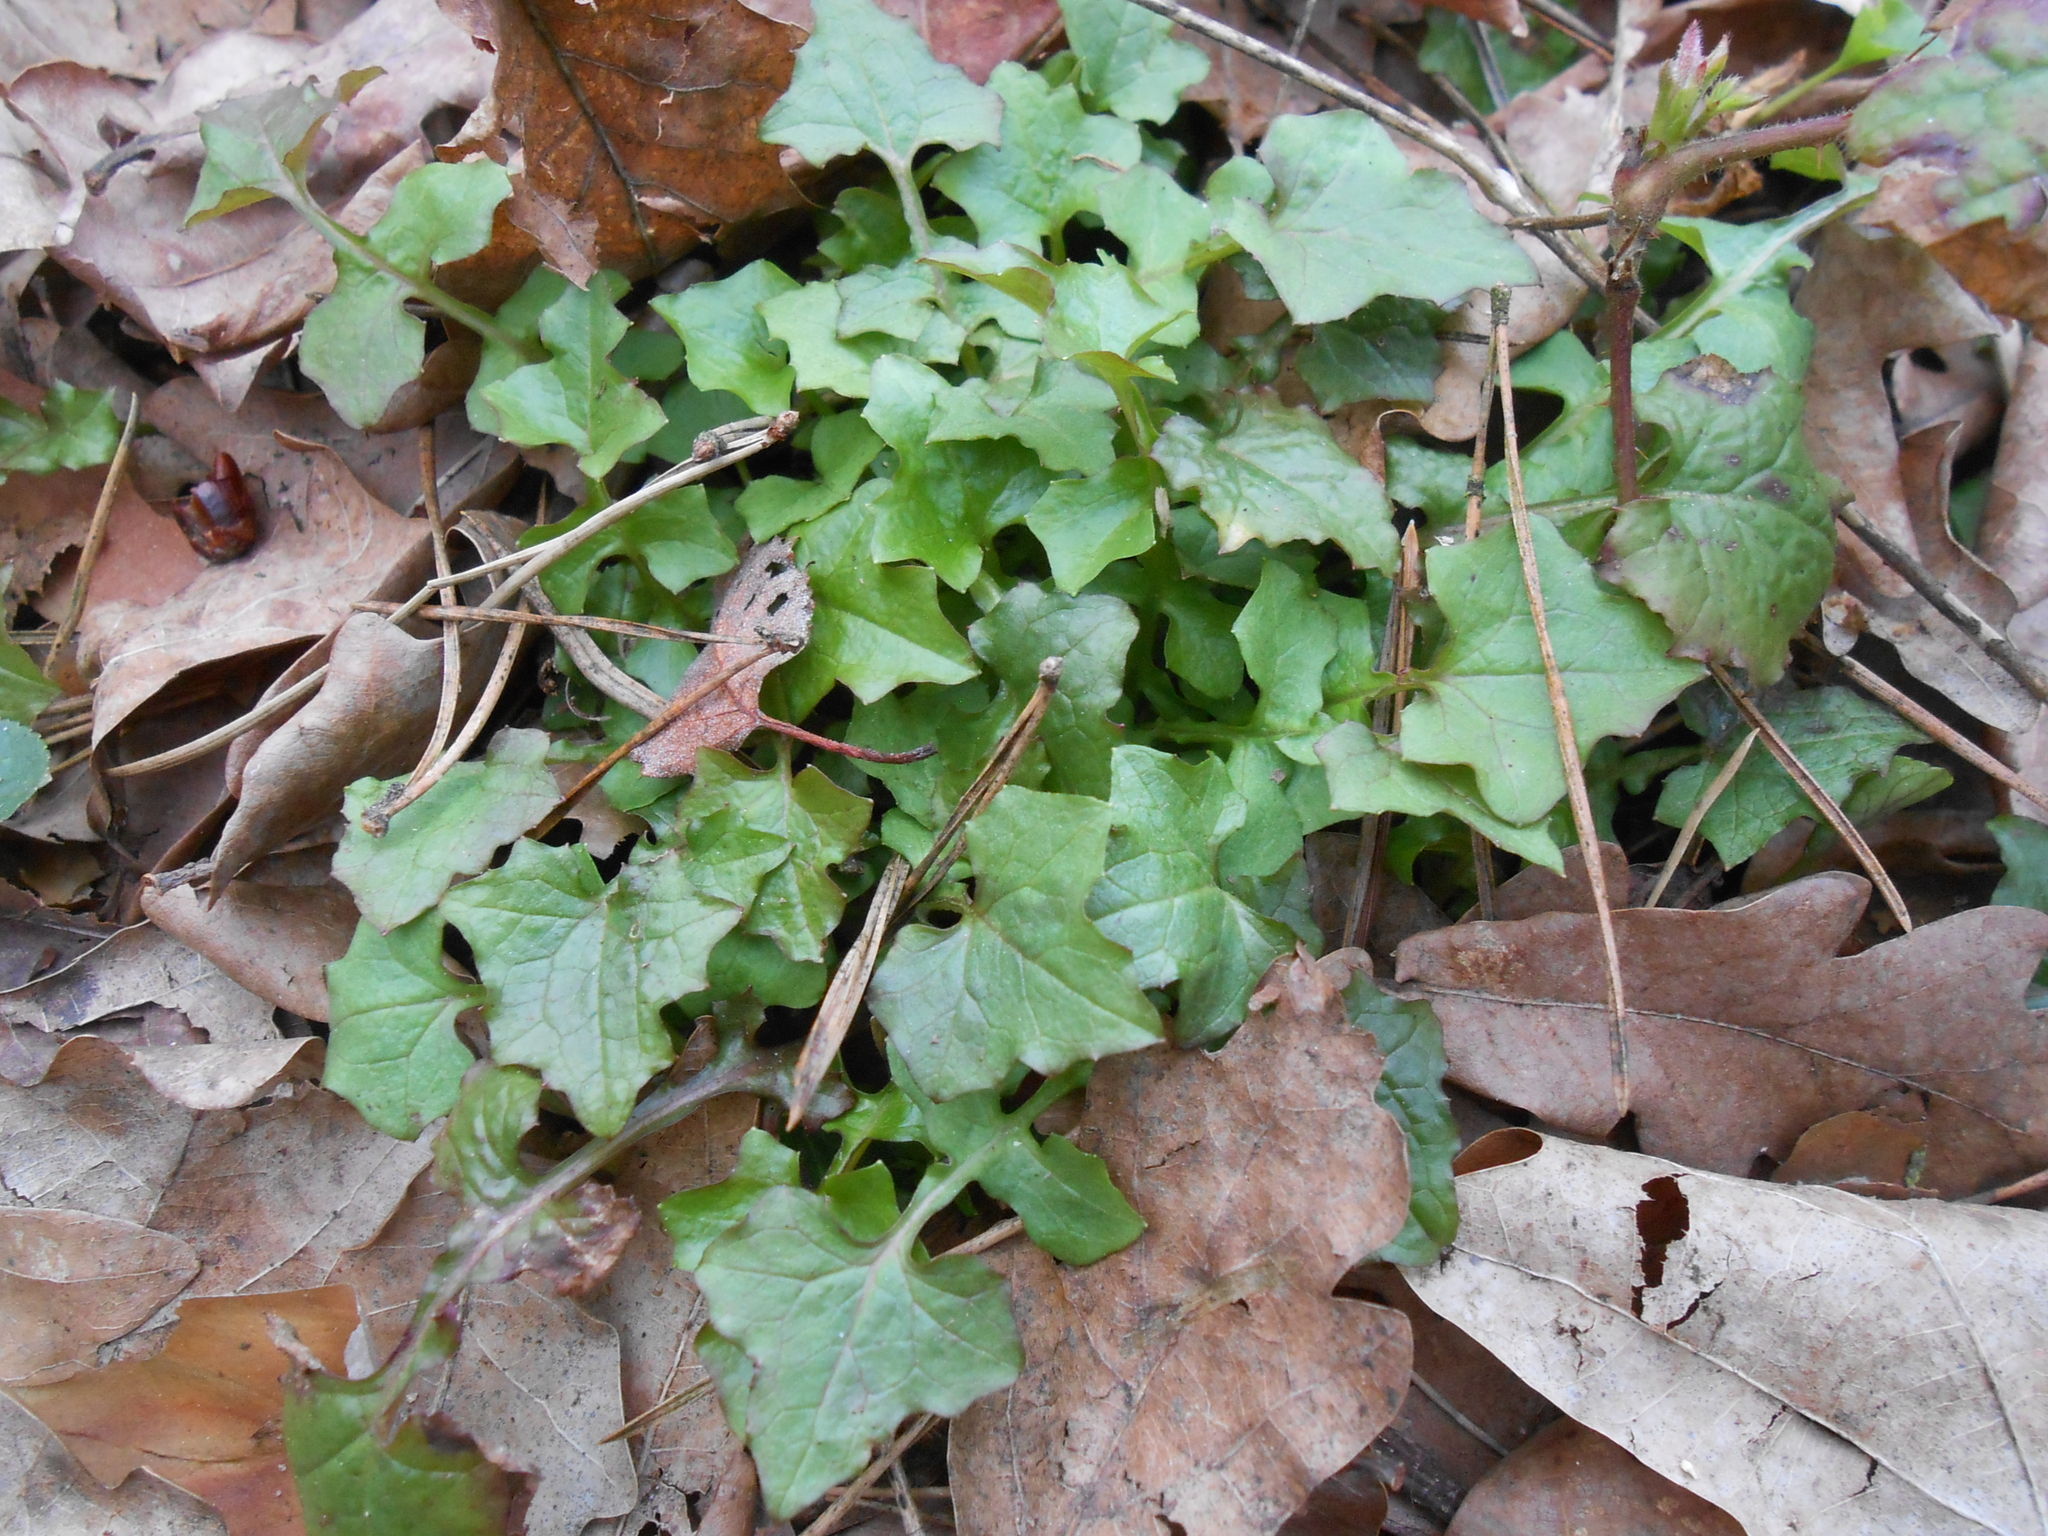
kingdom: Plantae
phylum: Tracheophyta
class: Magnoliopsida
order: Asterales
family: Asteraceae
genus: Mycelis
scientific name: Mycelis muralis
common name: Wall lettuce
